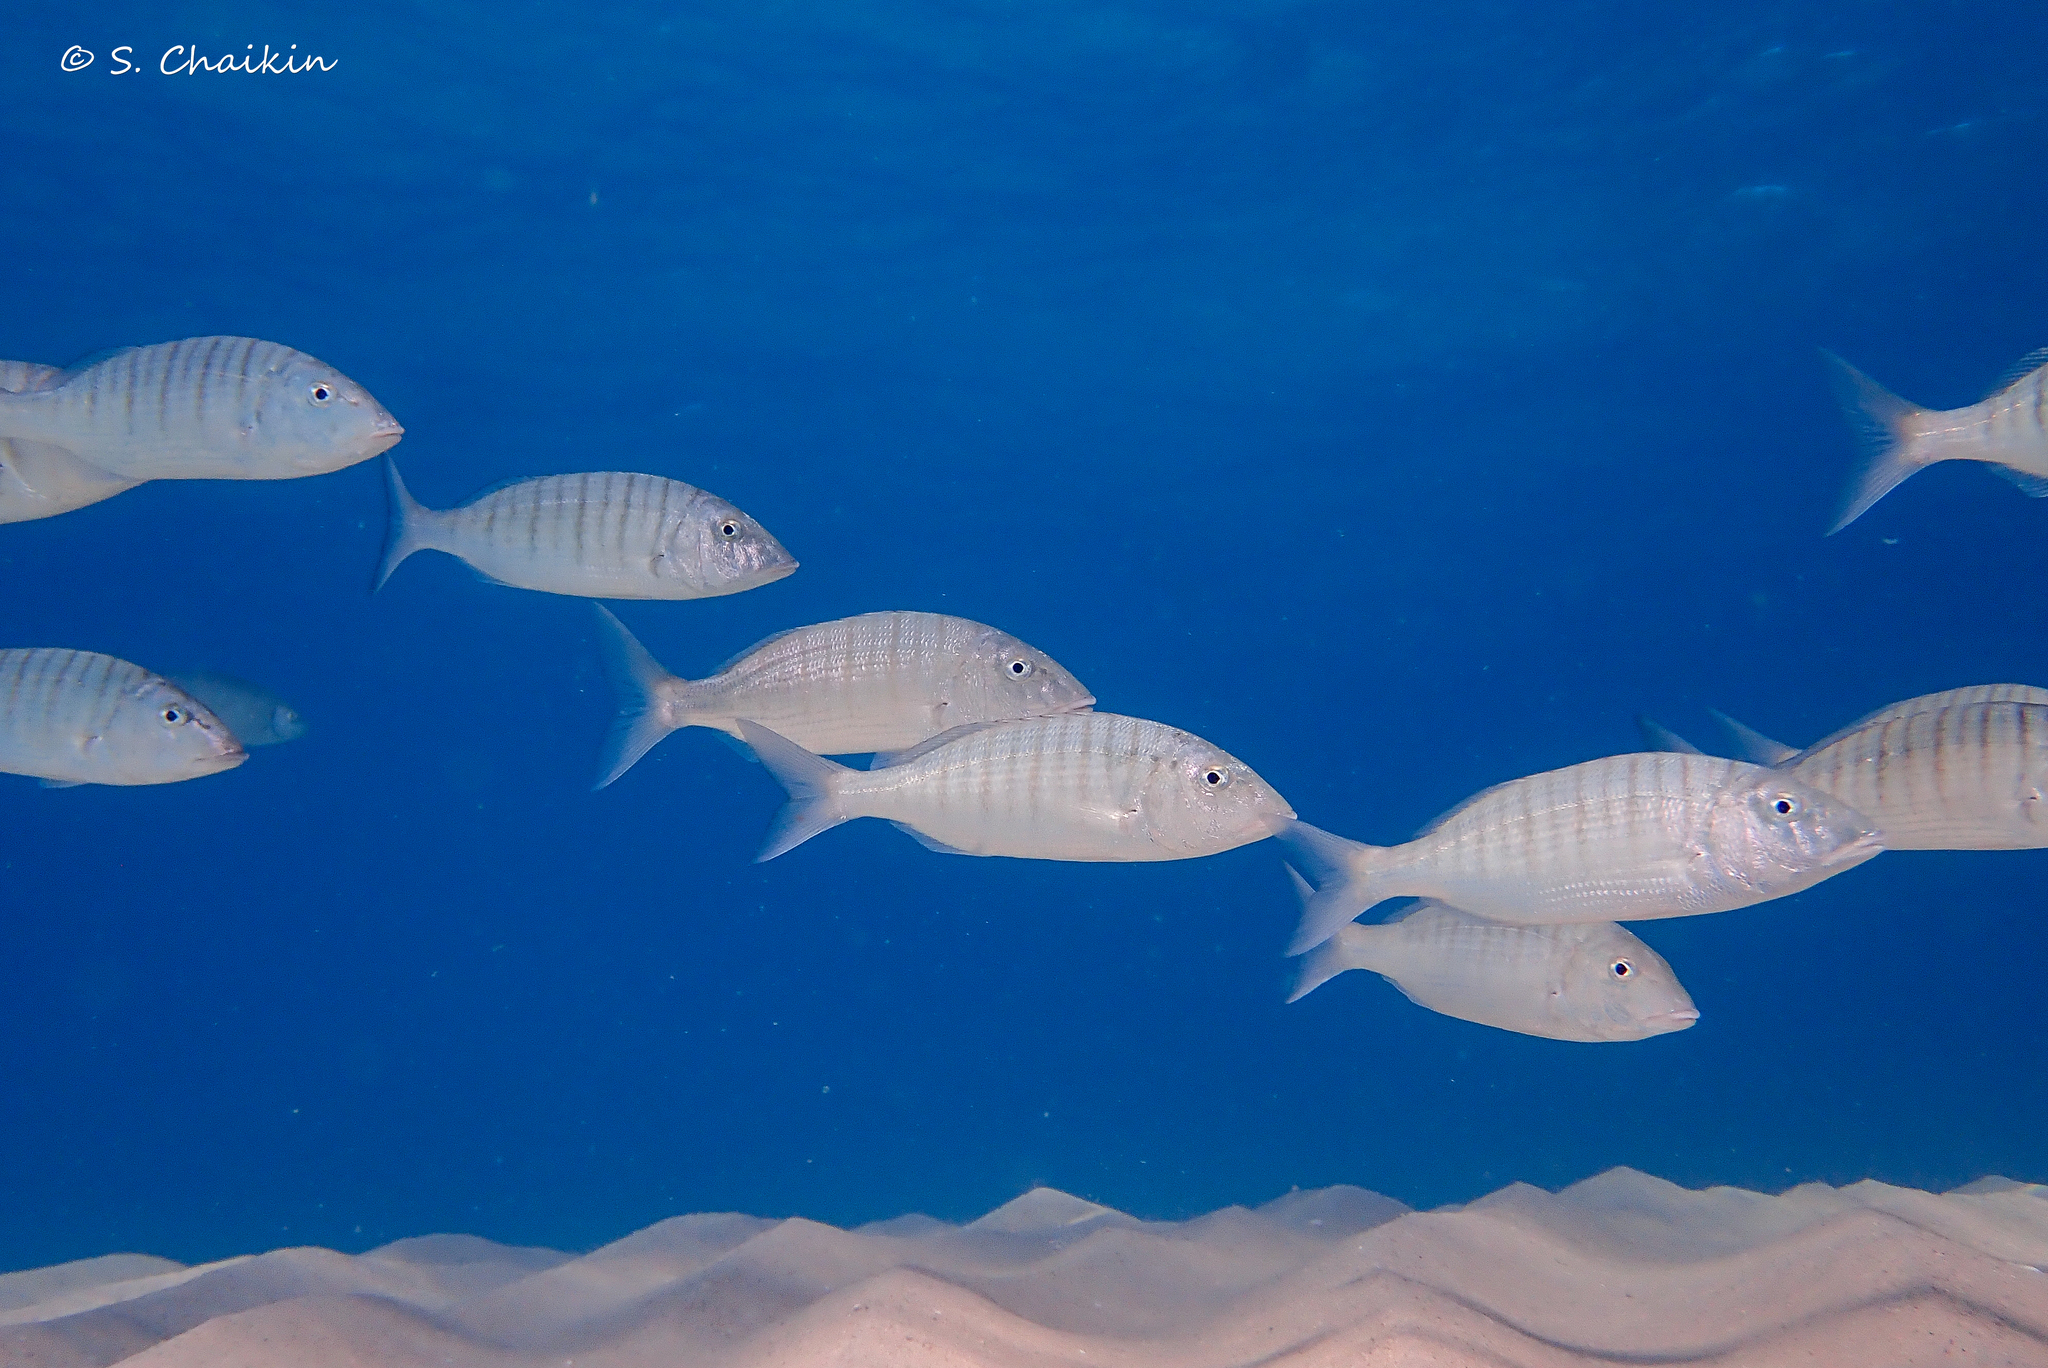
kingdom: Animalia
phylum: Chordata
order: Perciformes
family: Sparidae
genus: Lithognathus
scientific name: Lithognathus mormyrus
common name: Sand steenbras
